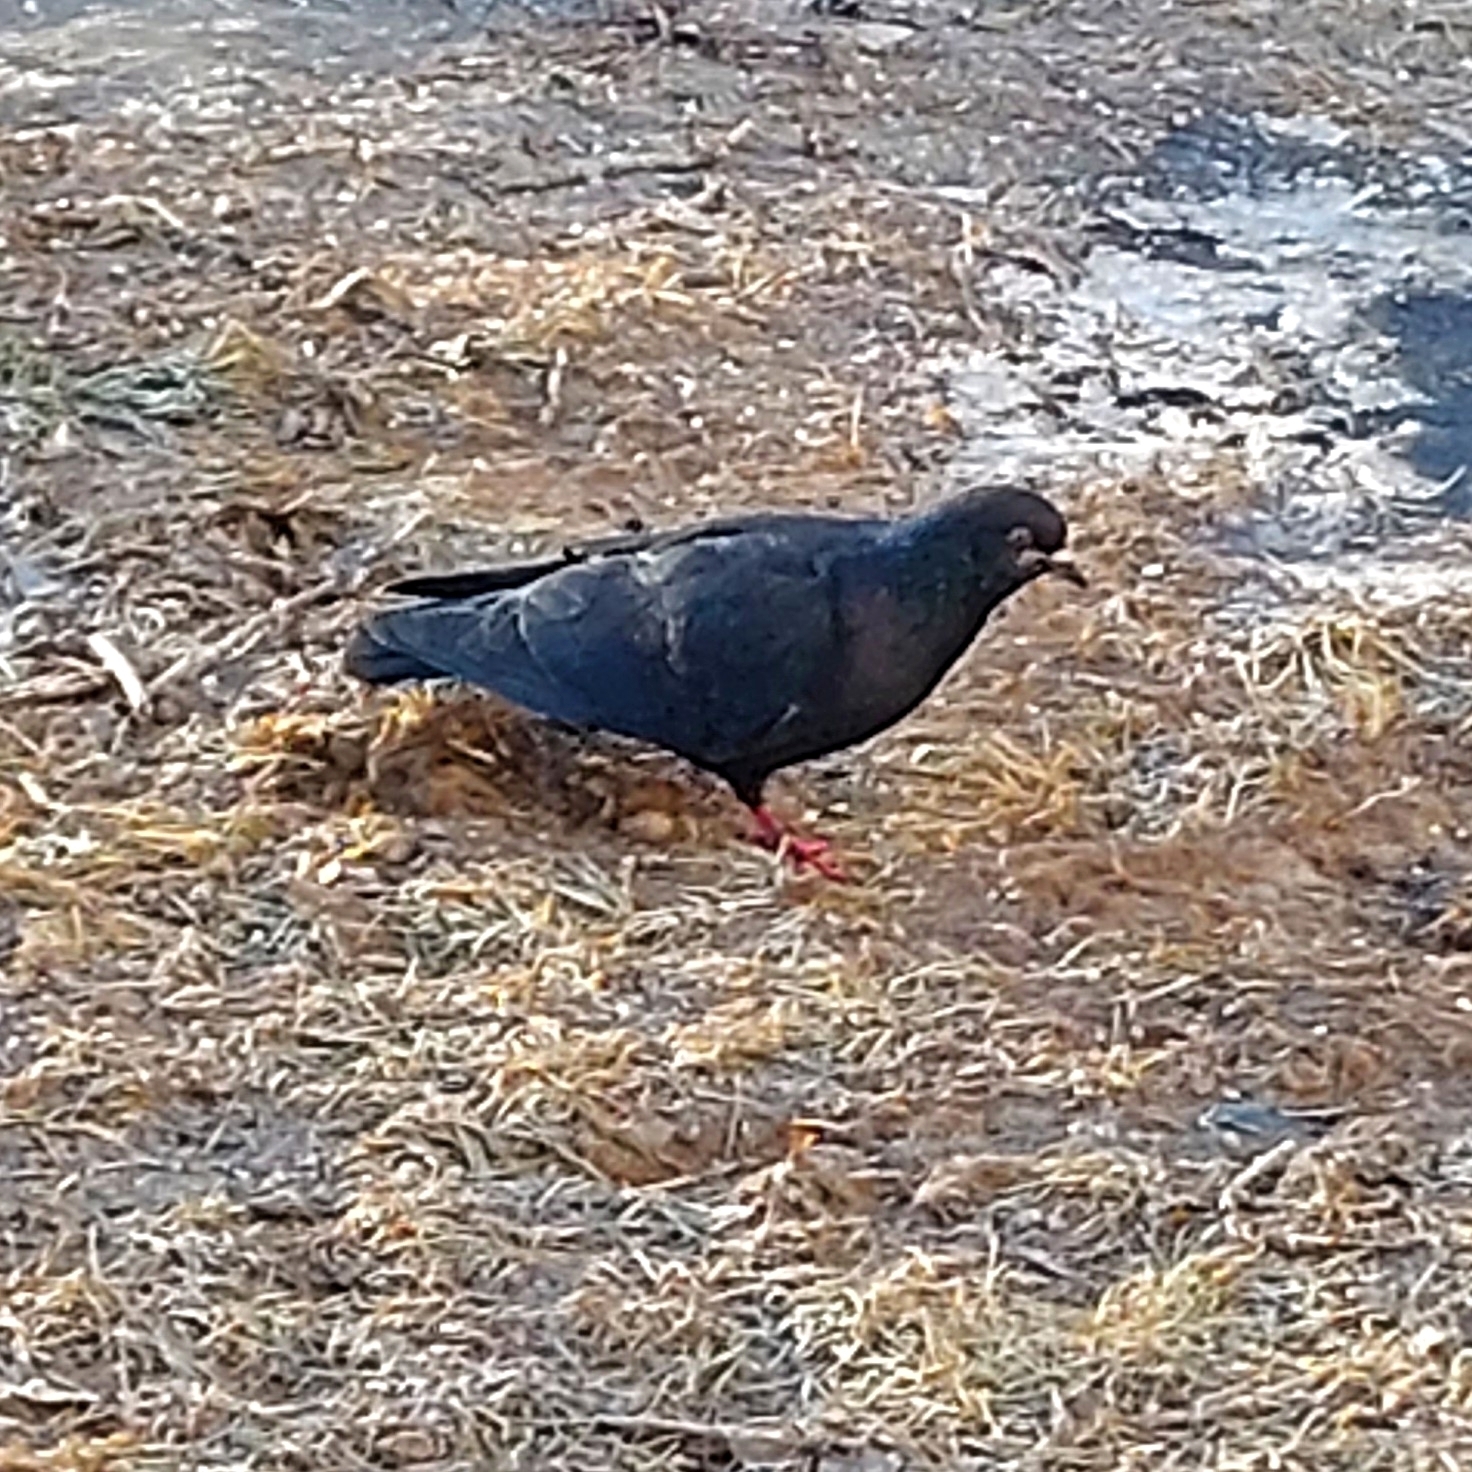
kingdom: Animalia
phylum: Chordata
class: Aves
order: Columbiformes
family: Columbidae
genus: Columba
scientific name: Columba livia
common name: Rock pigeon
